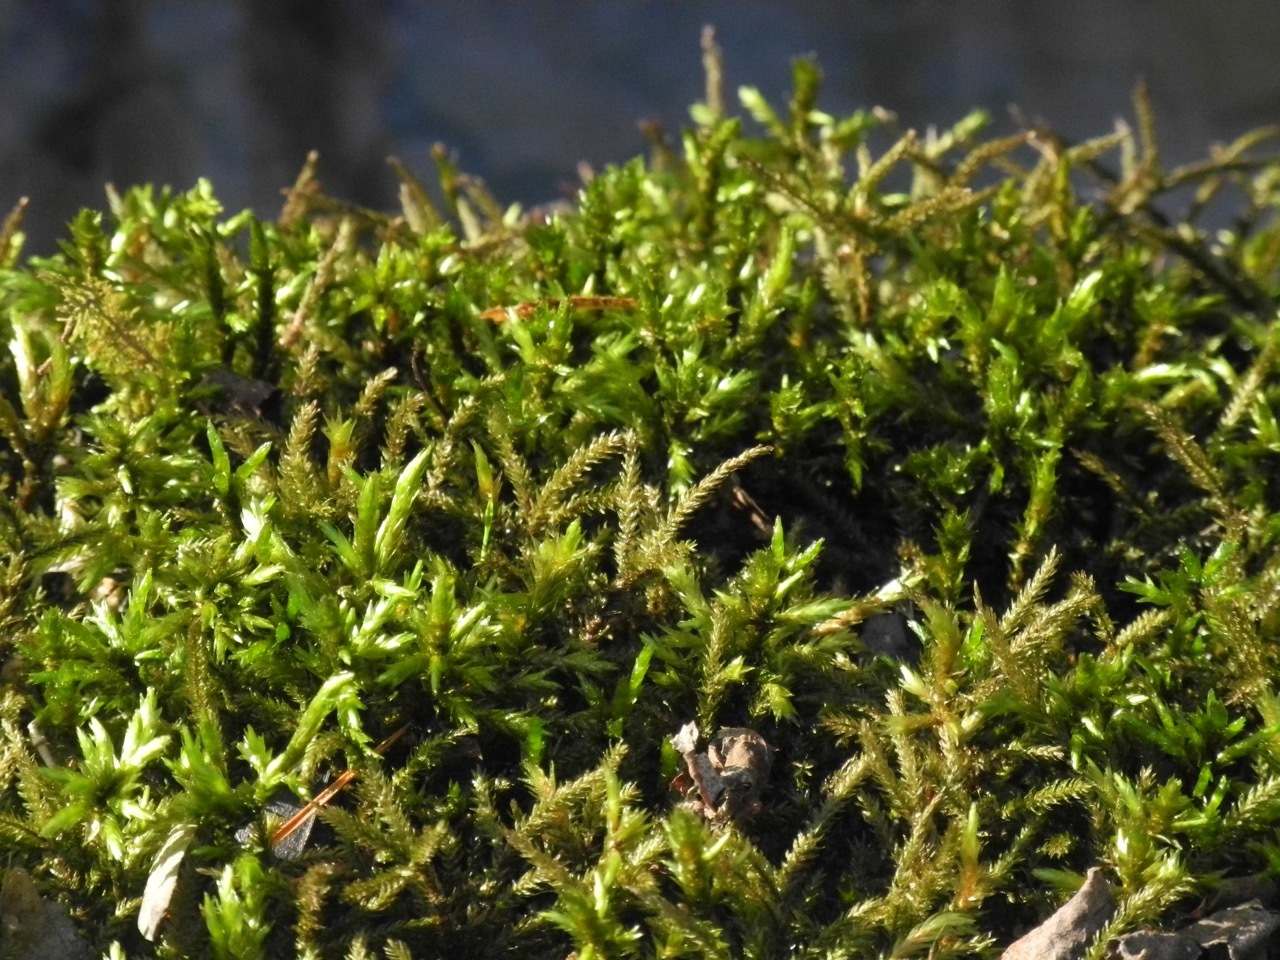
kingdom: Plantae
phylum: Bryophyta
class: Bryopsida
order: Hypnales
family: Climaciaceae
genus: Climacium
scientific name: Climacium americanum
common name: American tree moss
